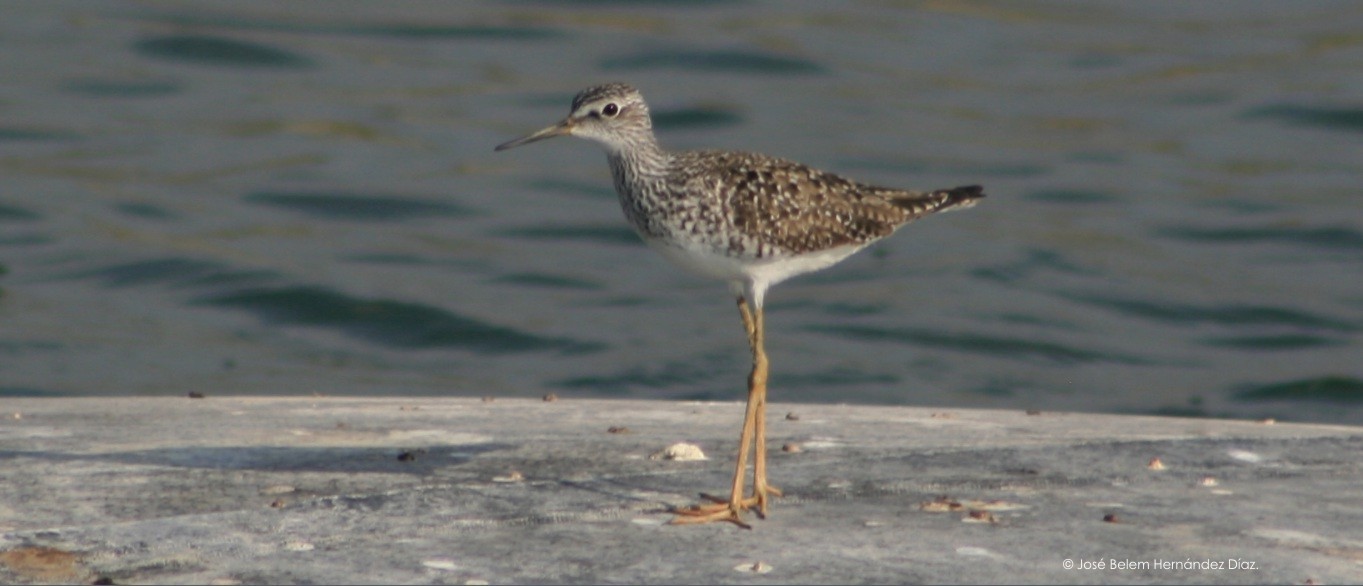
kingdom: Animalia
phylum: Chordata
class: Aves
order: Charadriiformes
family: Scolopacidae
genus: Tringa
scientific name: Tringa flavipes
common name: Lesser yellowlegs
